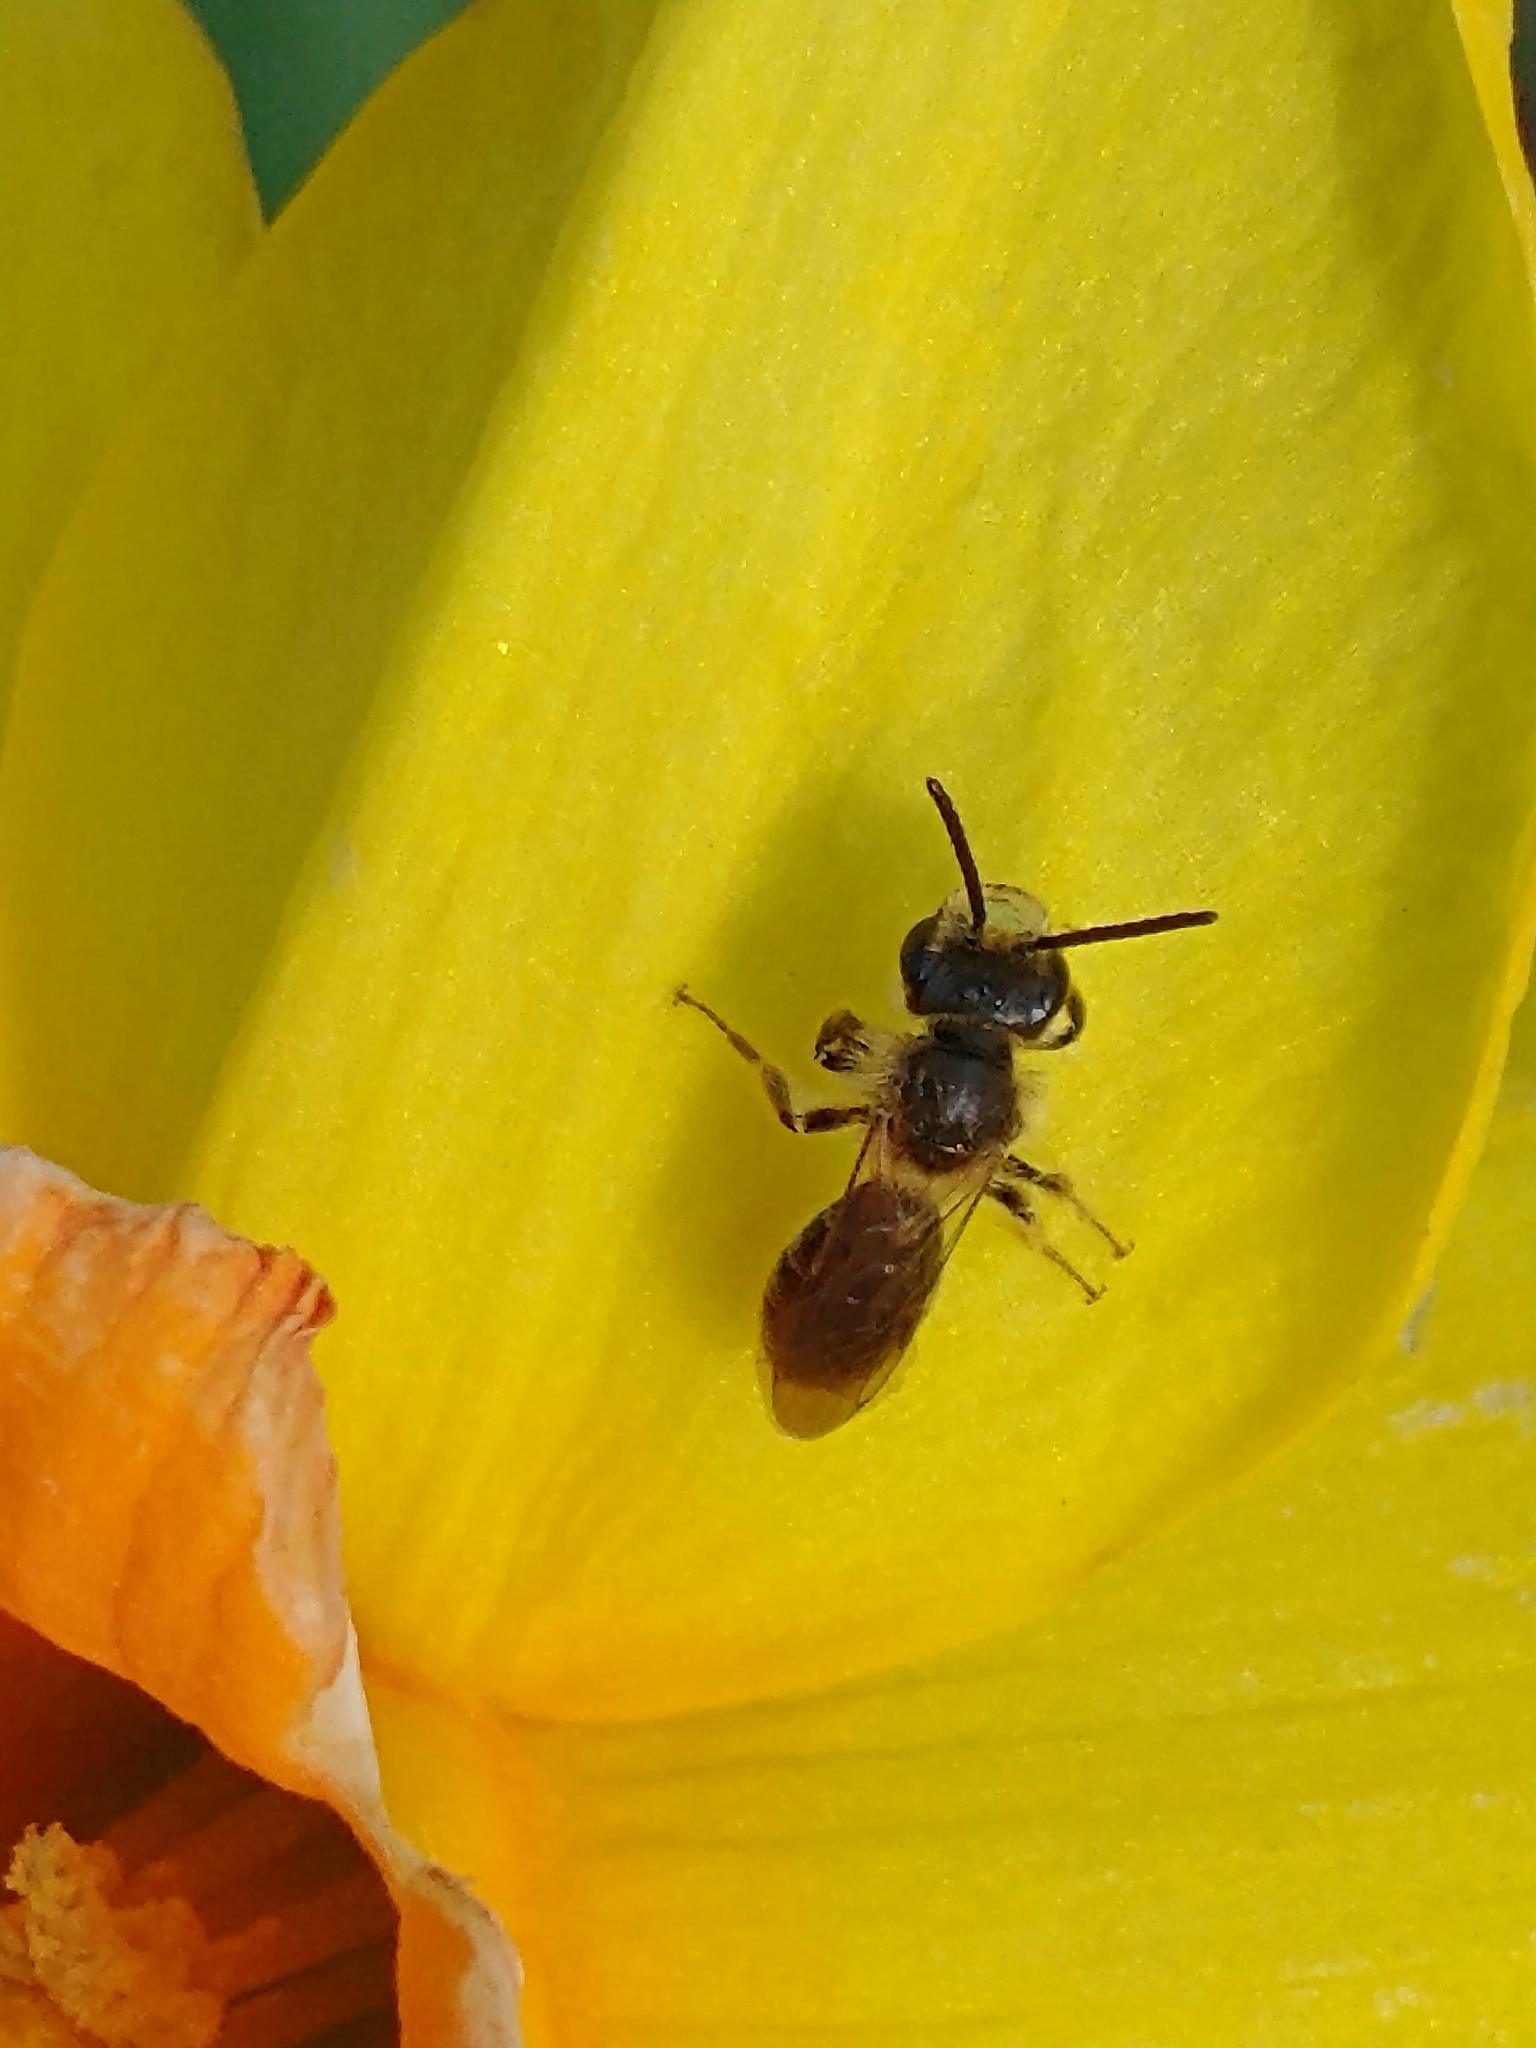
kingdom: Animalia
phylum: Arthropoda
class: Insecta
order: Hymenoptera
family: Andrenidae
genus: Andrena
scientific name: Andrena miserabilis
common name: Miserable mining bee
